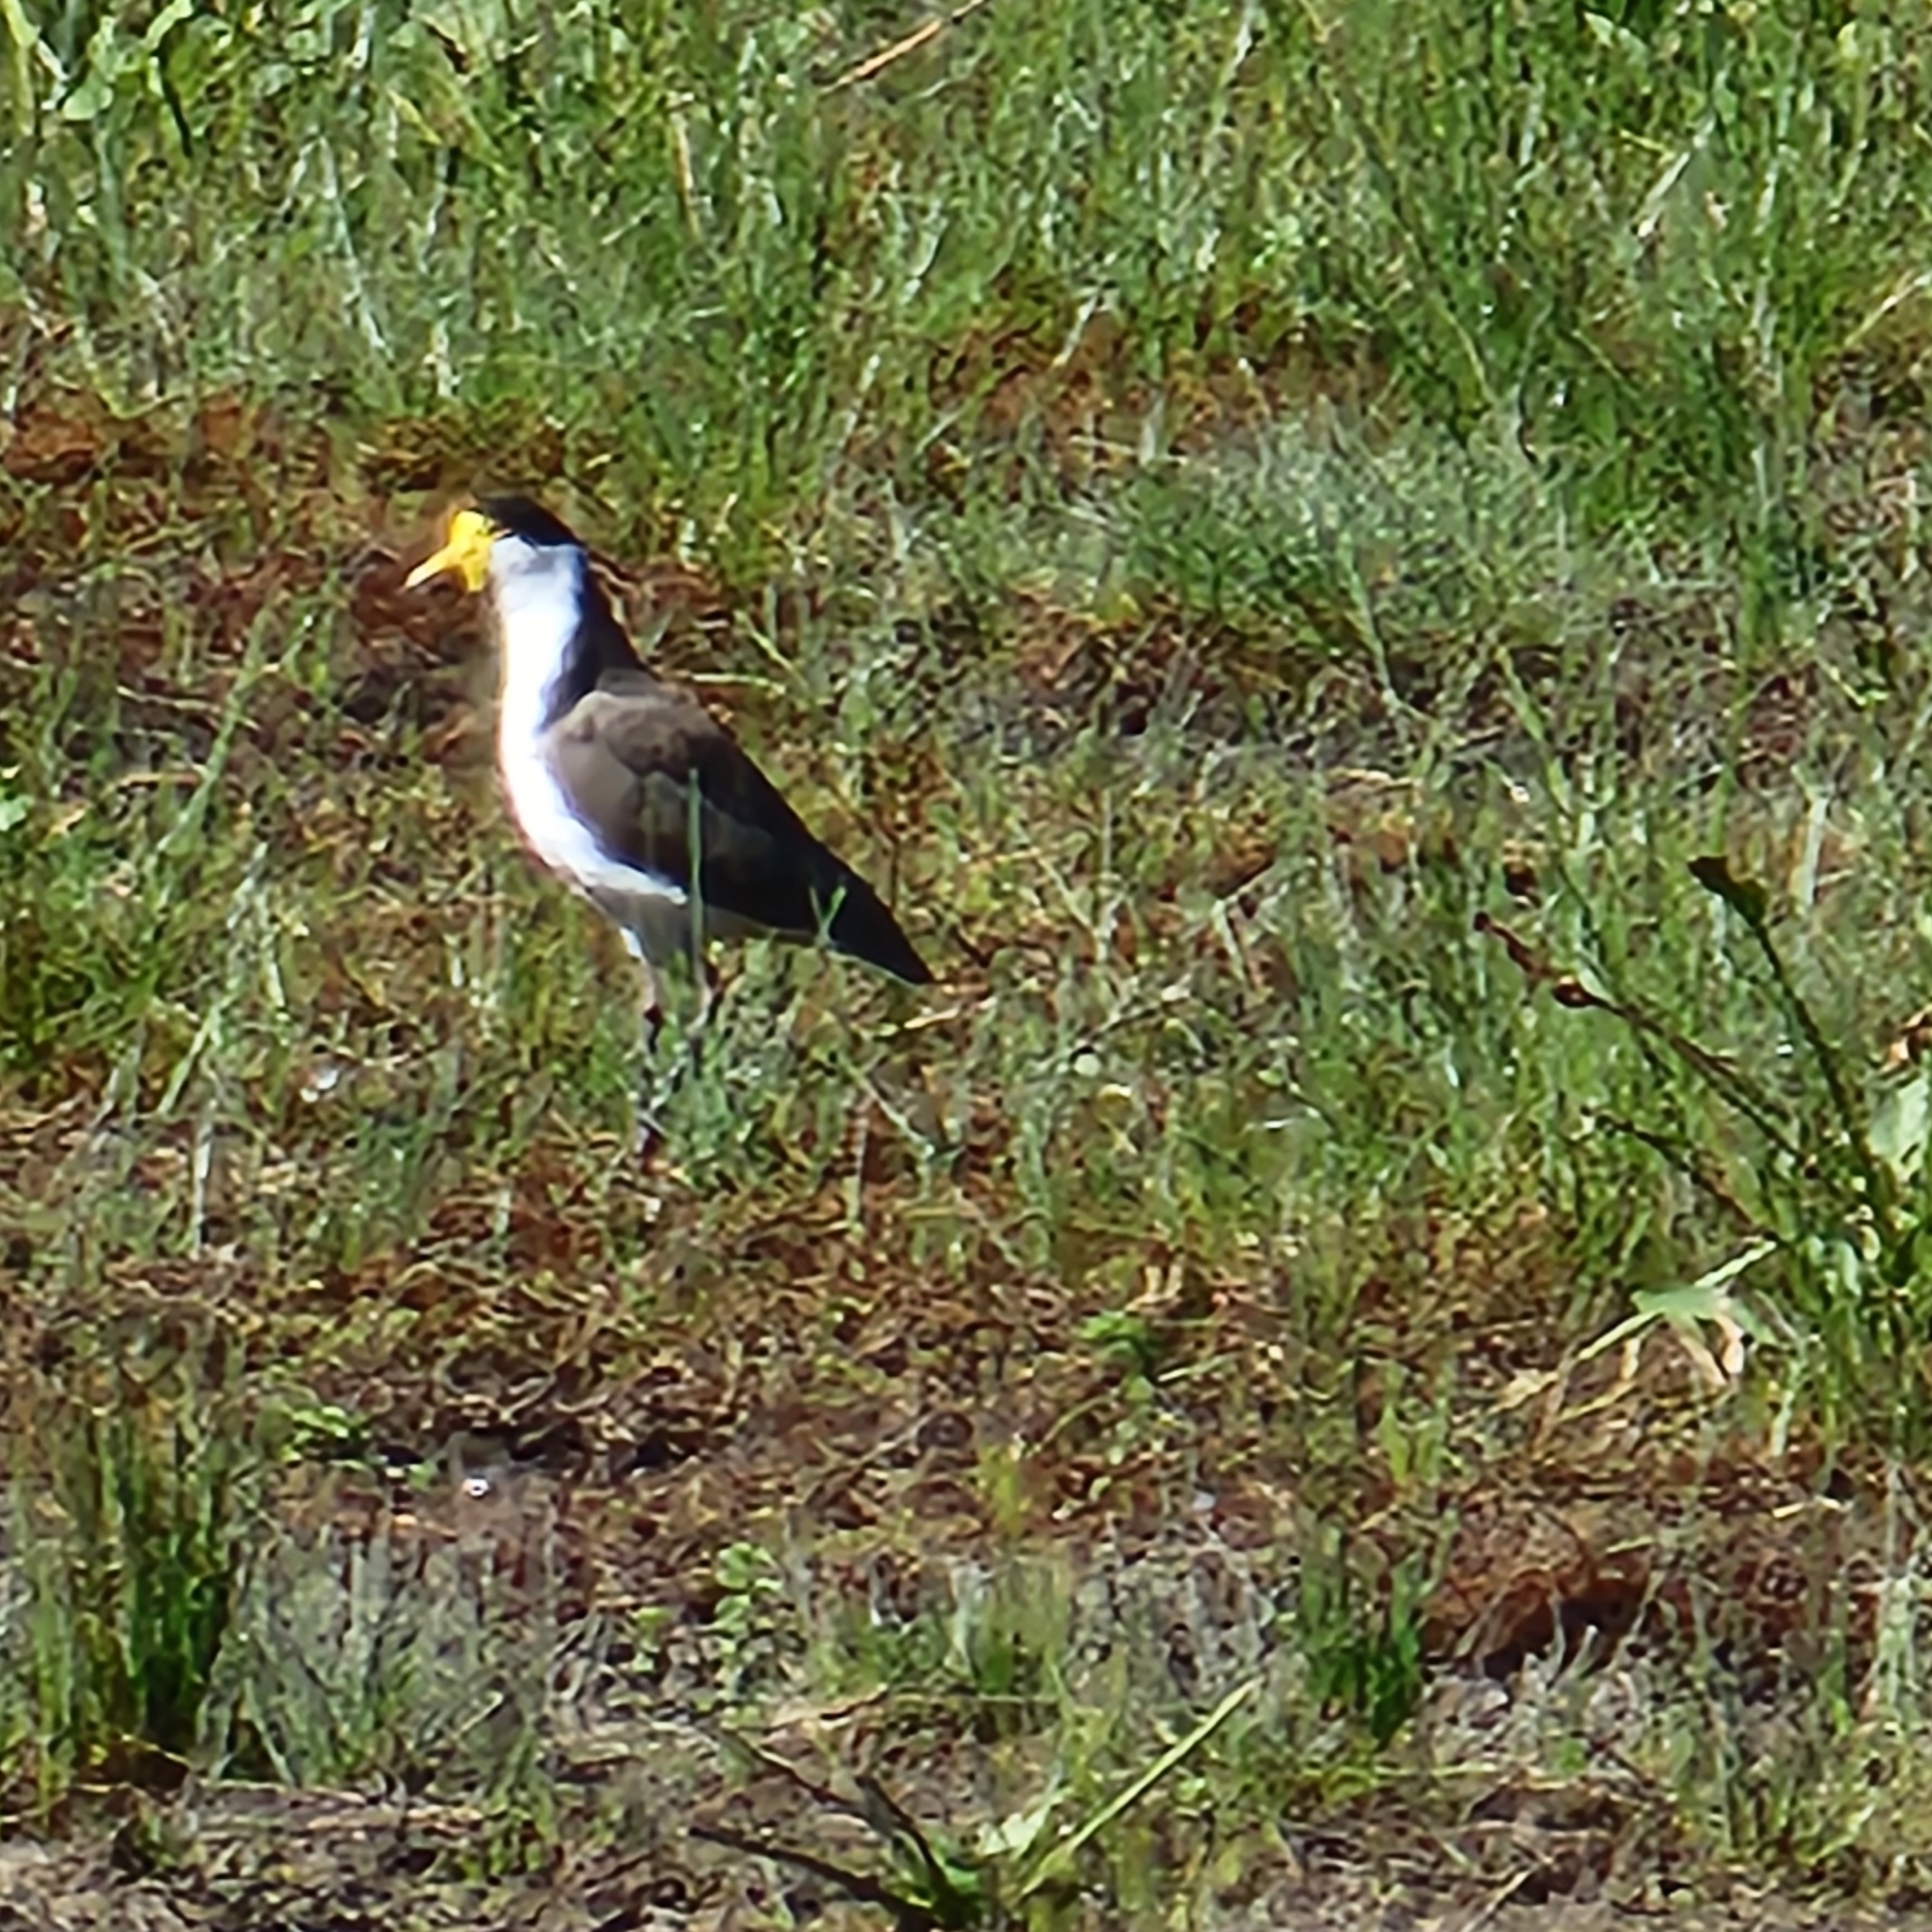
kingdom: Animalia
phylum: Chordata
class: Aves
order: Charadriiformes
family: Charadriidae
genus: Vanellus
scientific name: Vanellus miles
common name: Masked lapwing
